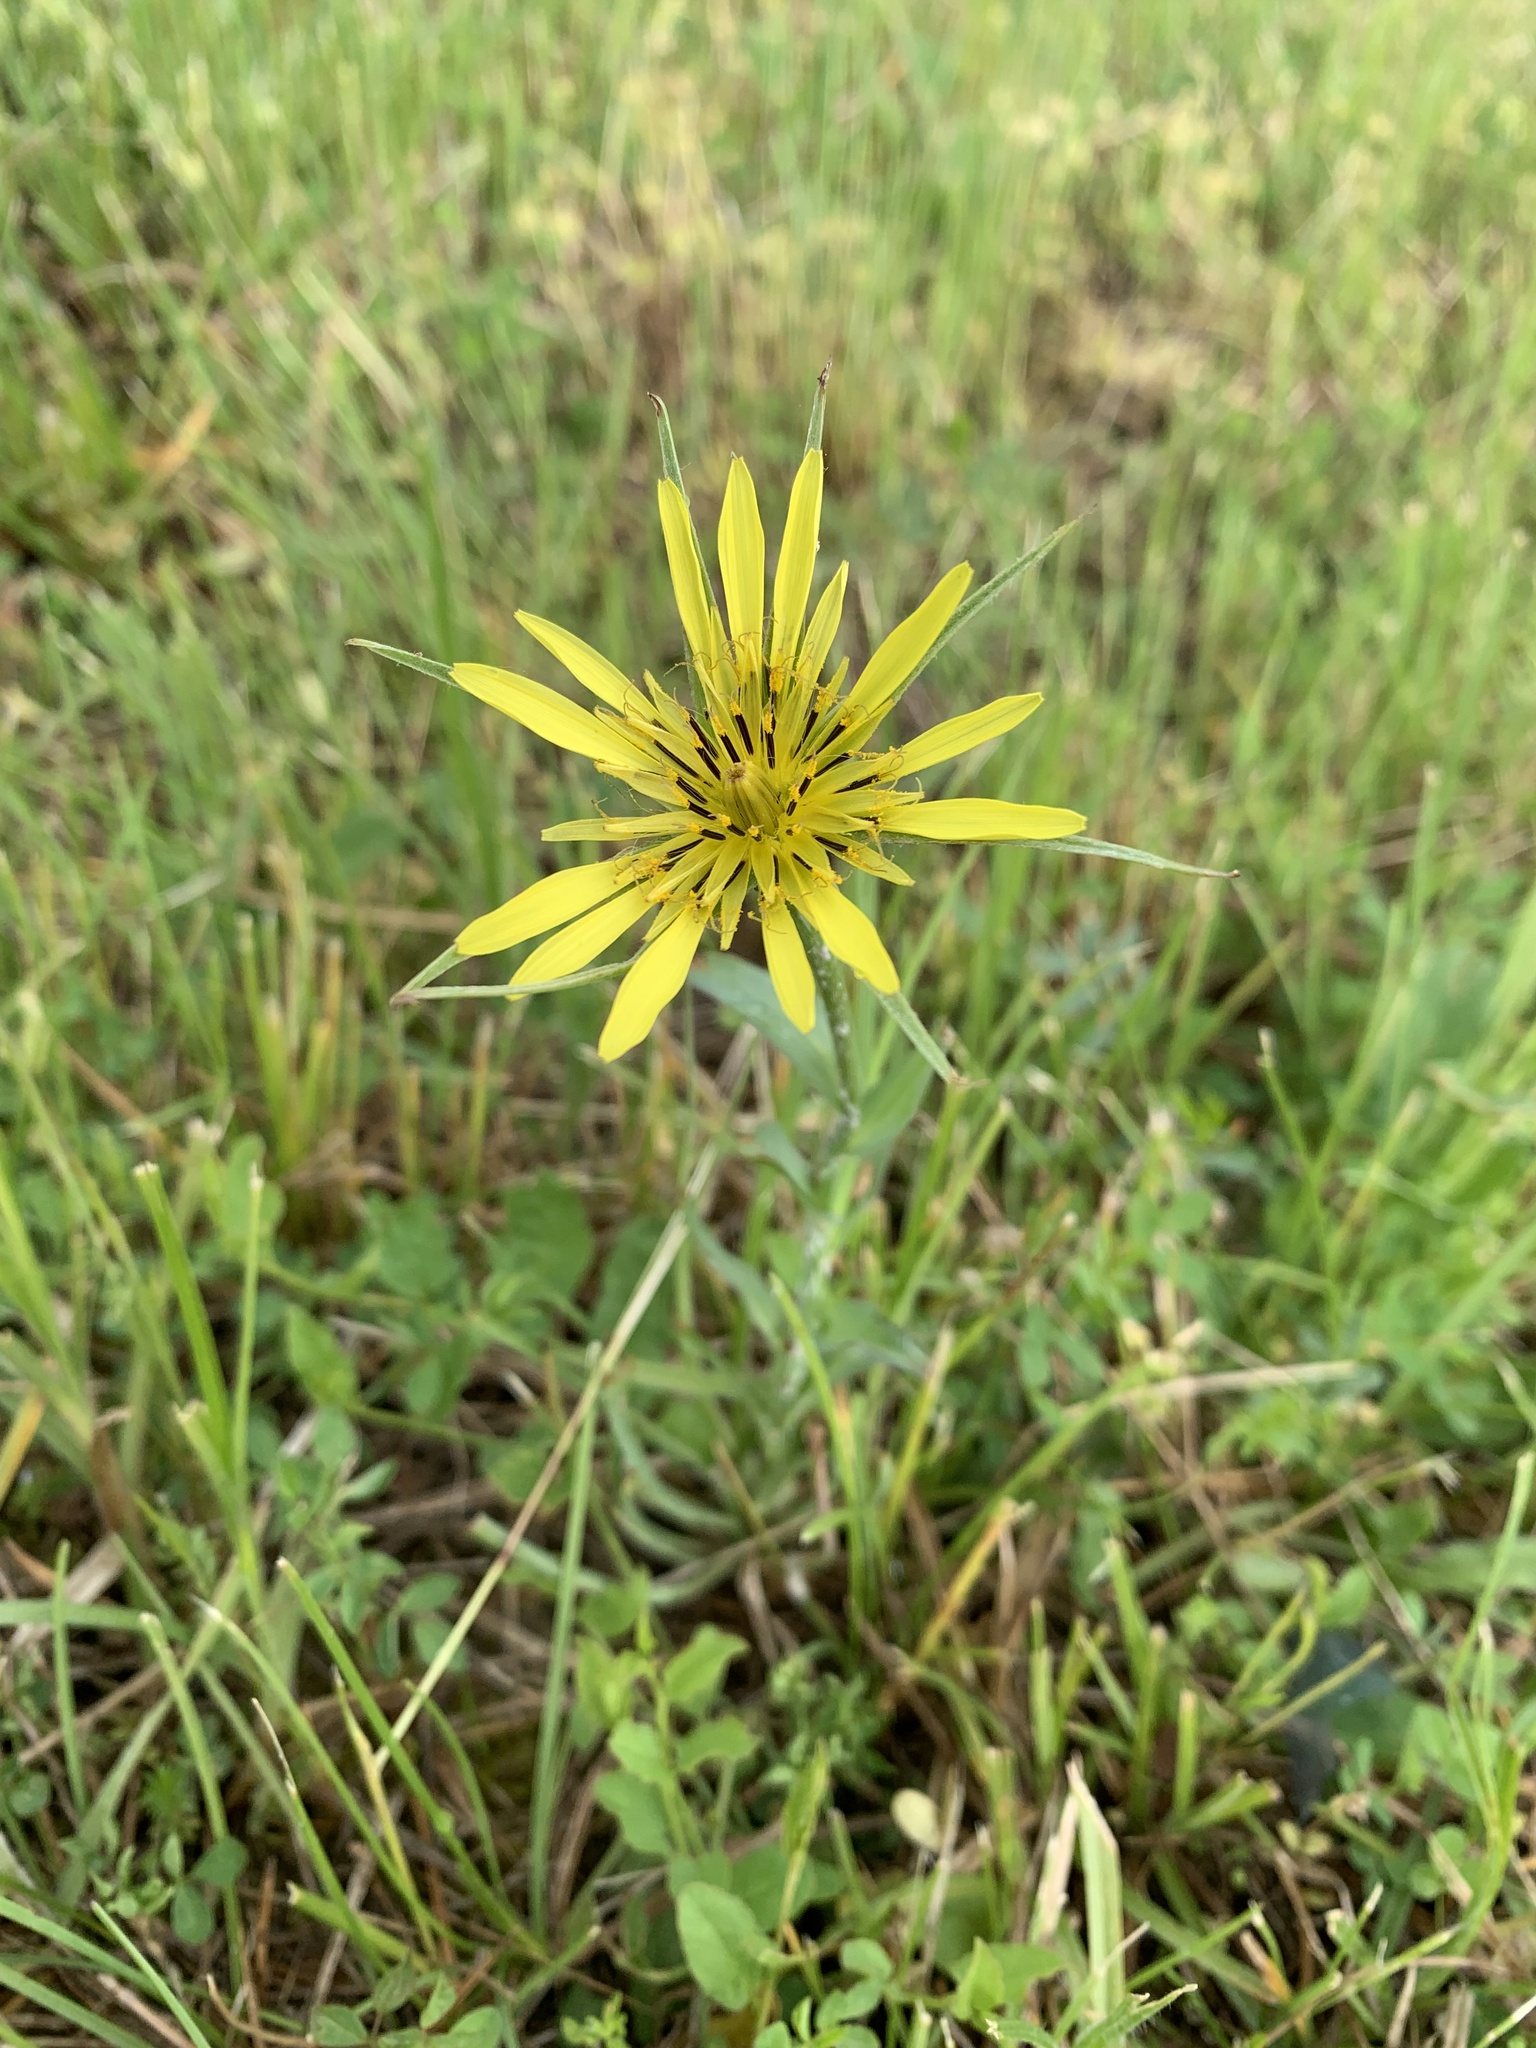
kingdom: Plantae
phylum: Tracheophyta
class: Magnoliopsida
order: Asterales
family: Asteraceae
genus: Tragopogon
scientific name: Tragopogon dubius
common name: Yellow salsify
